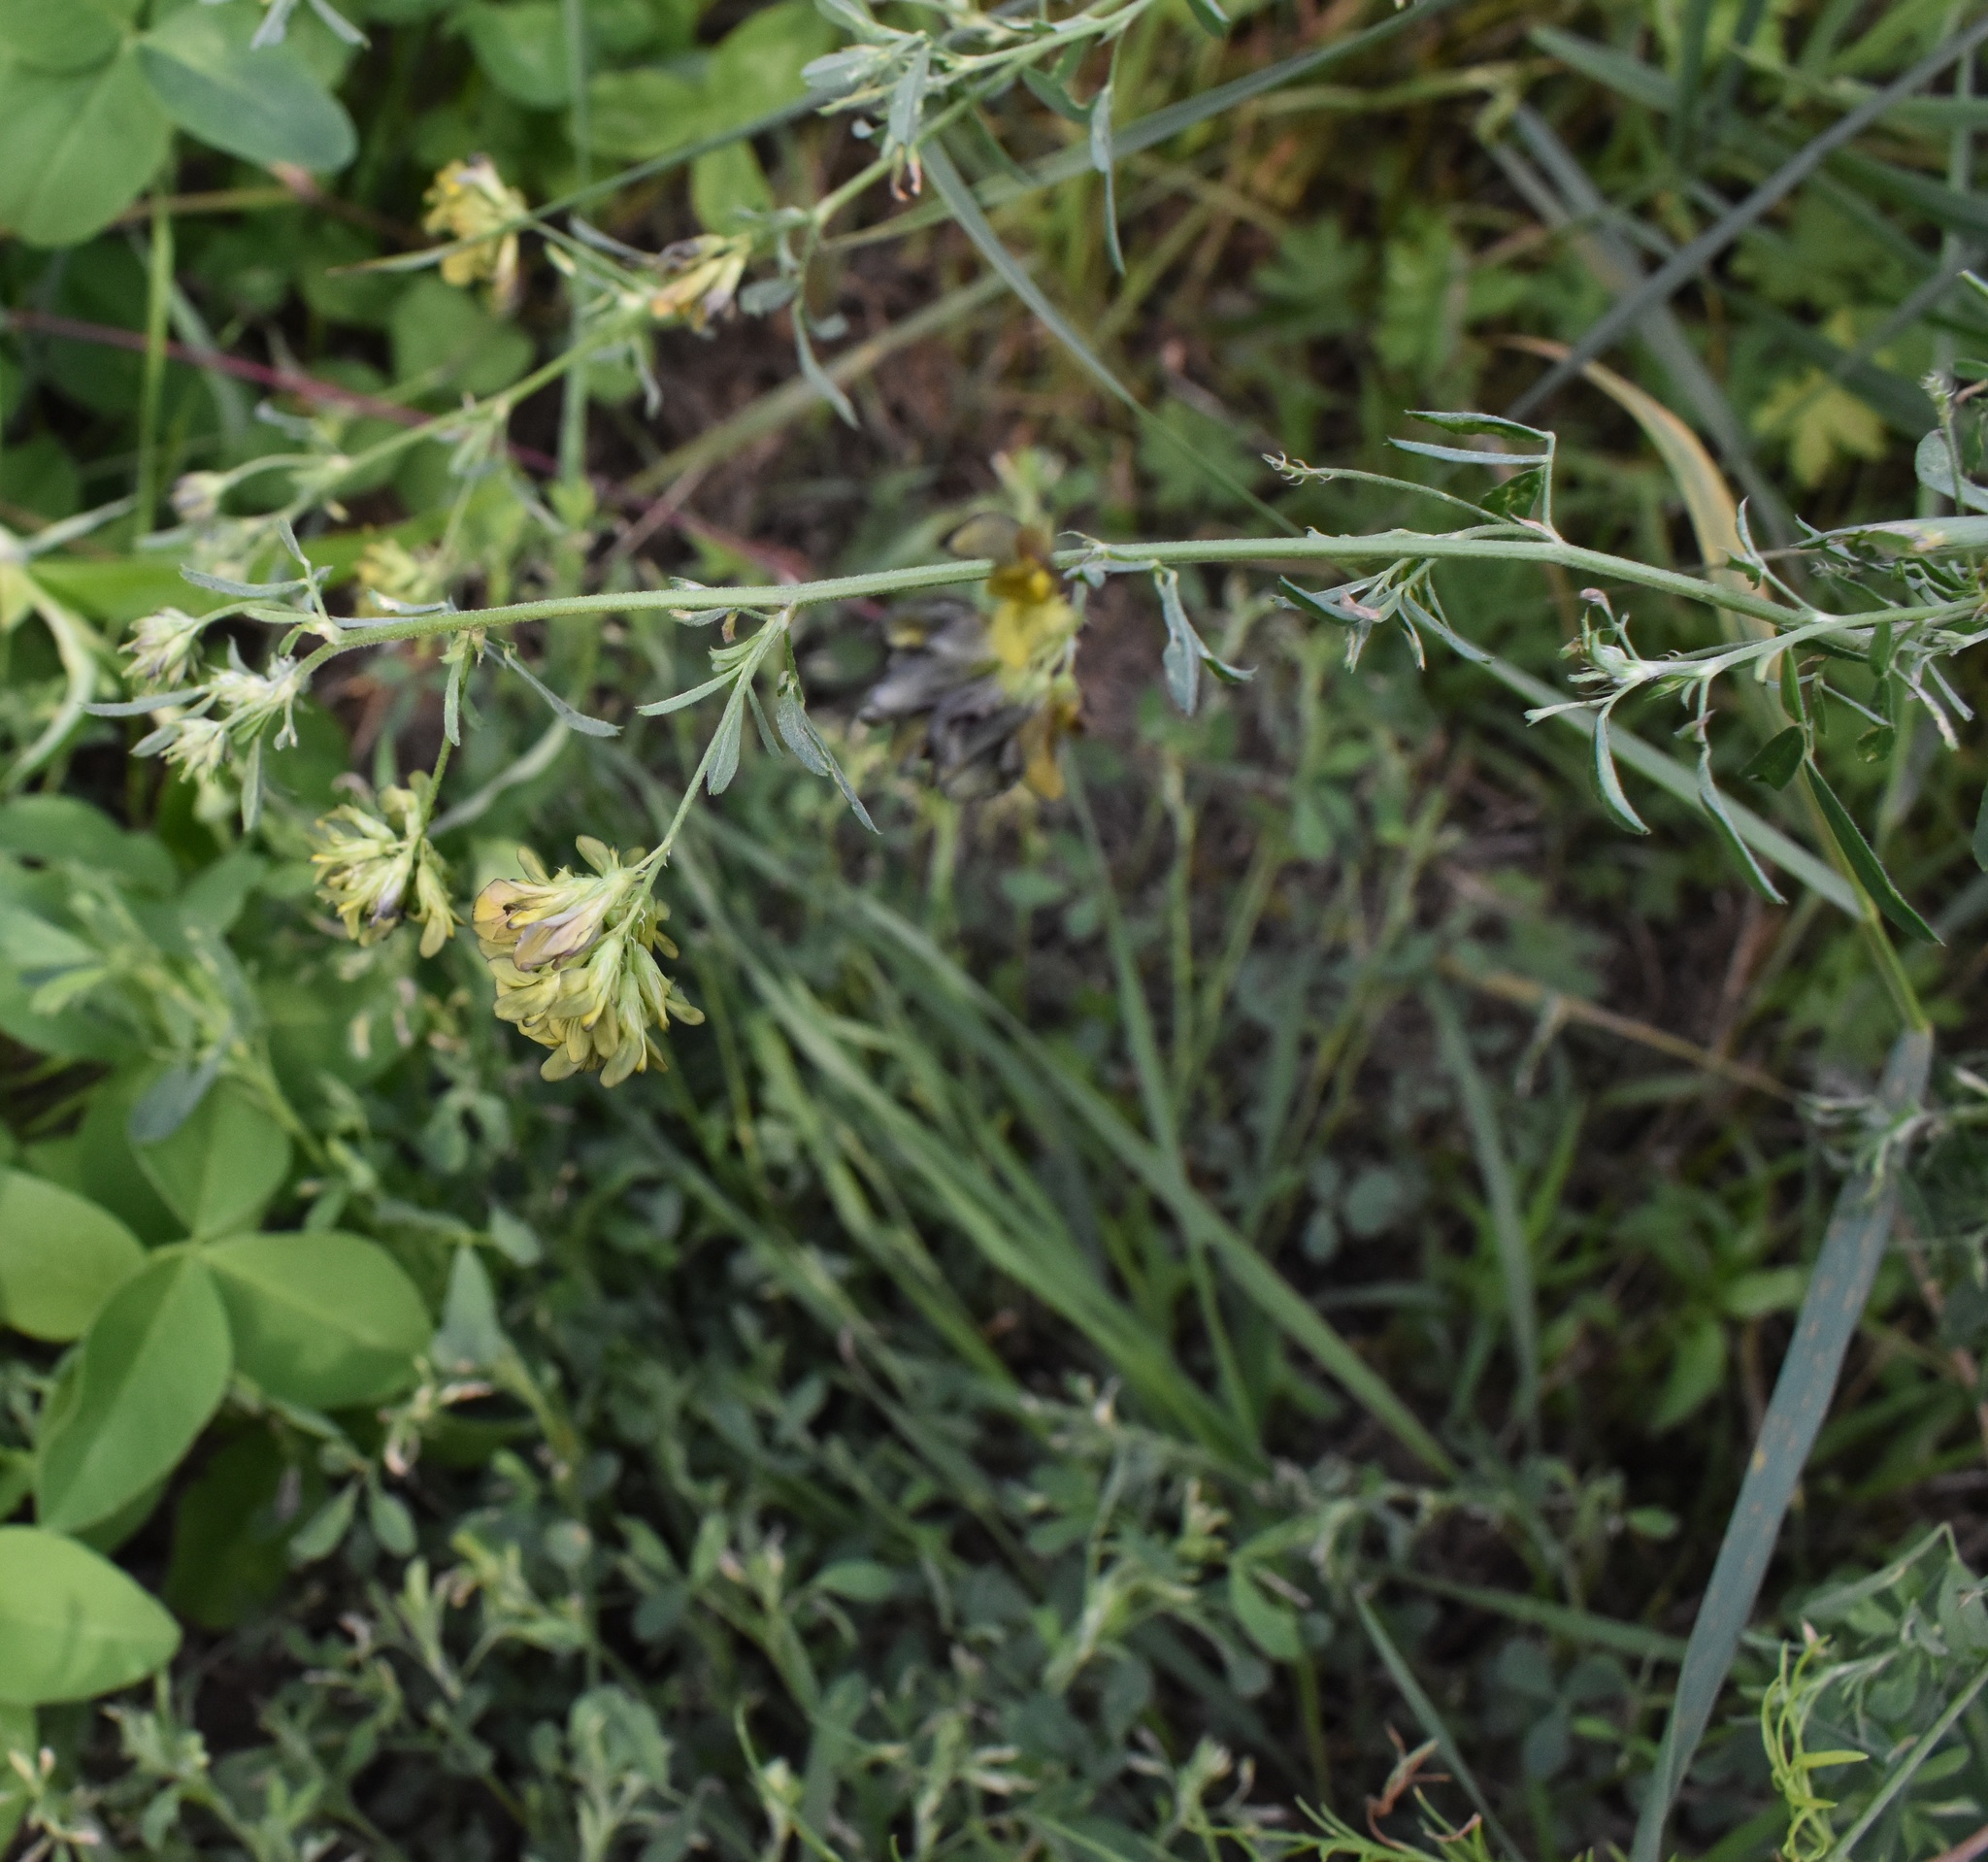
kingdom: Plantae
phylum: Tracheophyta
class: Magnoliopsida
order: Fabales
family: Fabaceae
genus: Medicago
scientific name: Medicago varia
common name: Sand lucerne
